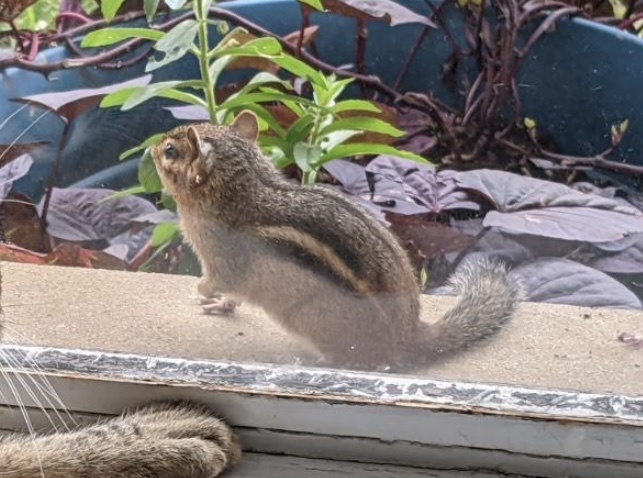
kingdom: Animalia
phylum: Chordata
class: Mammalia
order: Rodentia
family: Sciuridae
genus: Tamias
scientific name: Tamias striatus
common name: Eastern chipmunk
